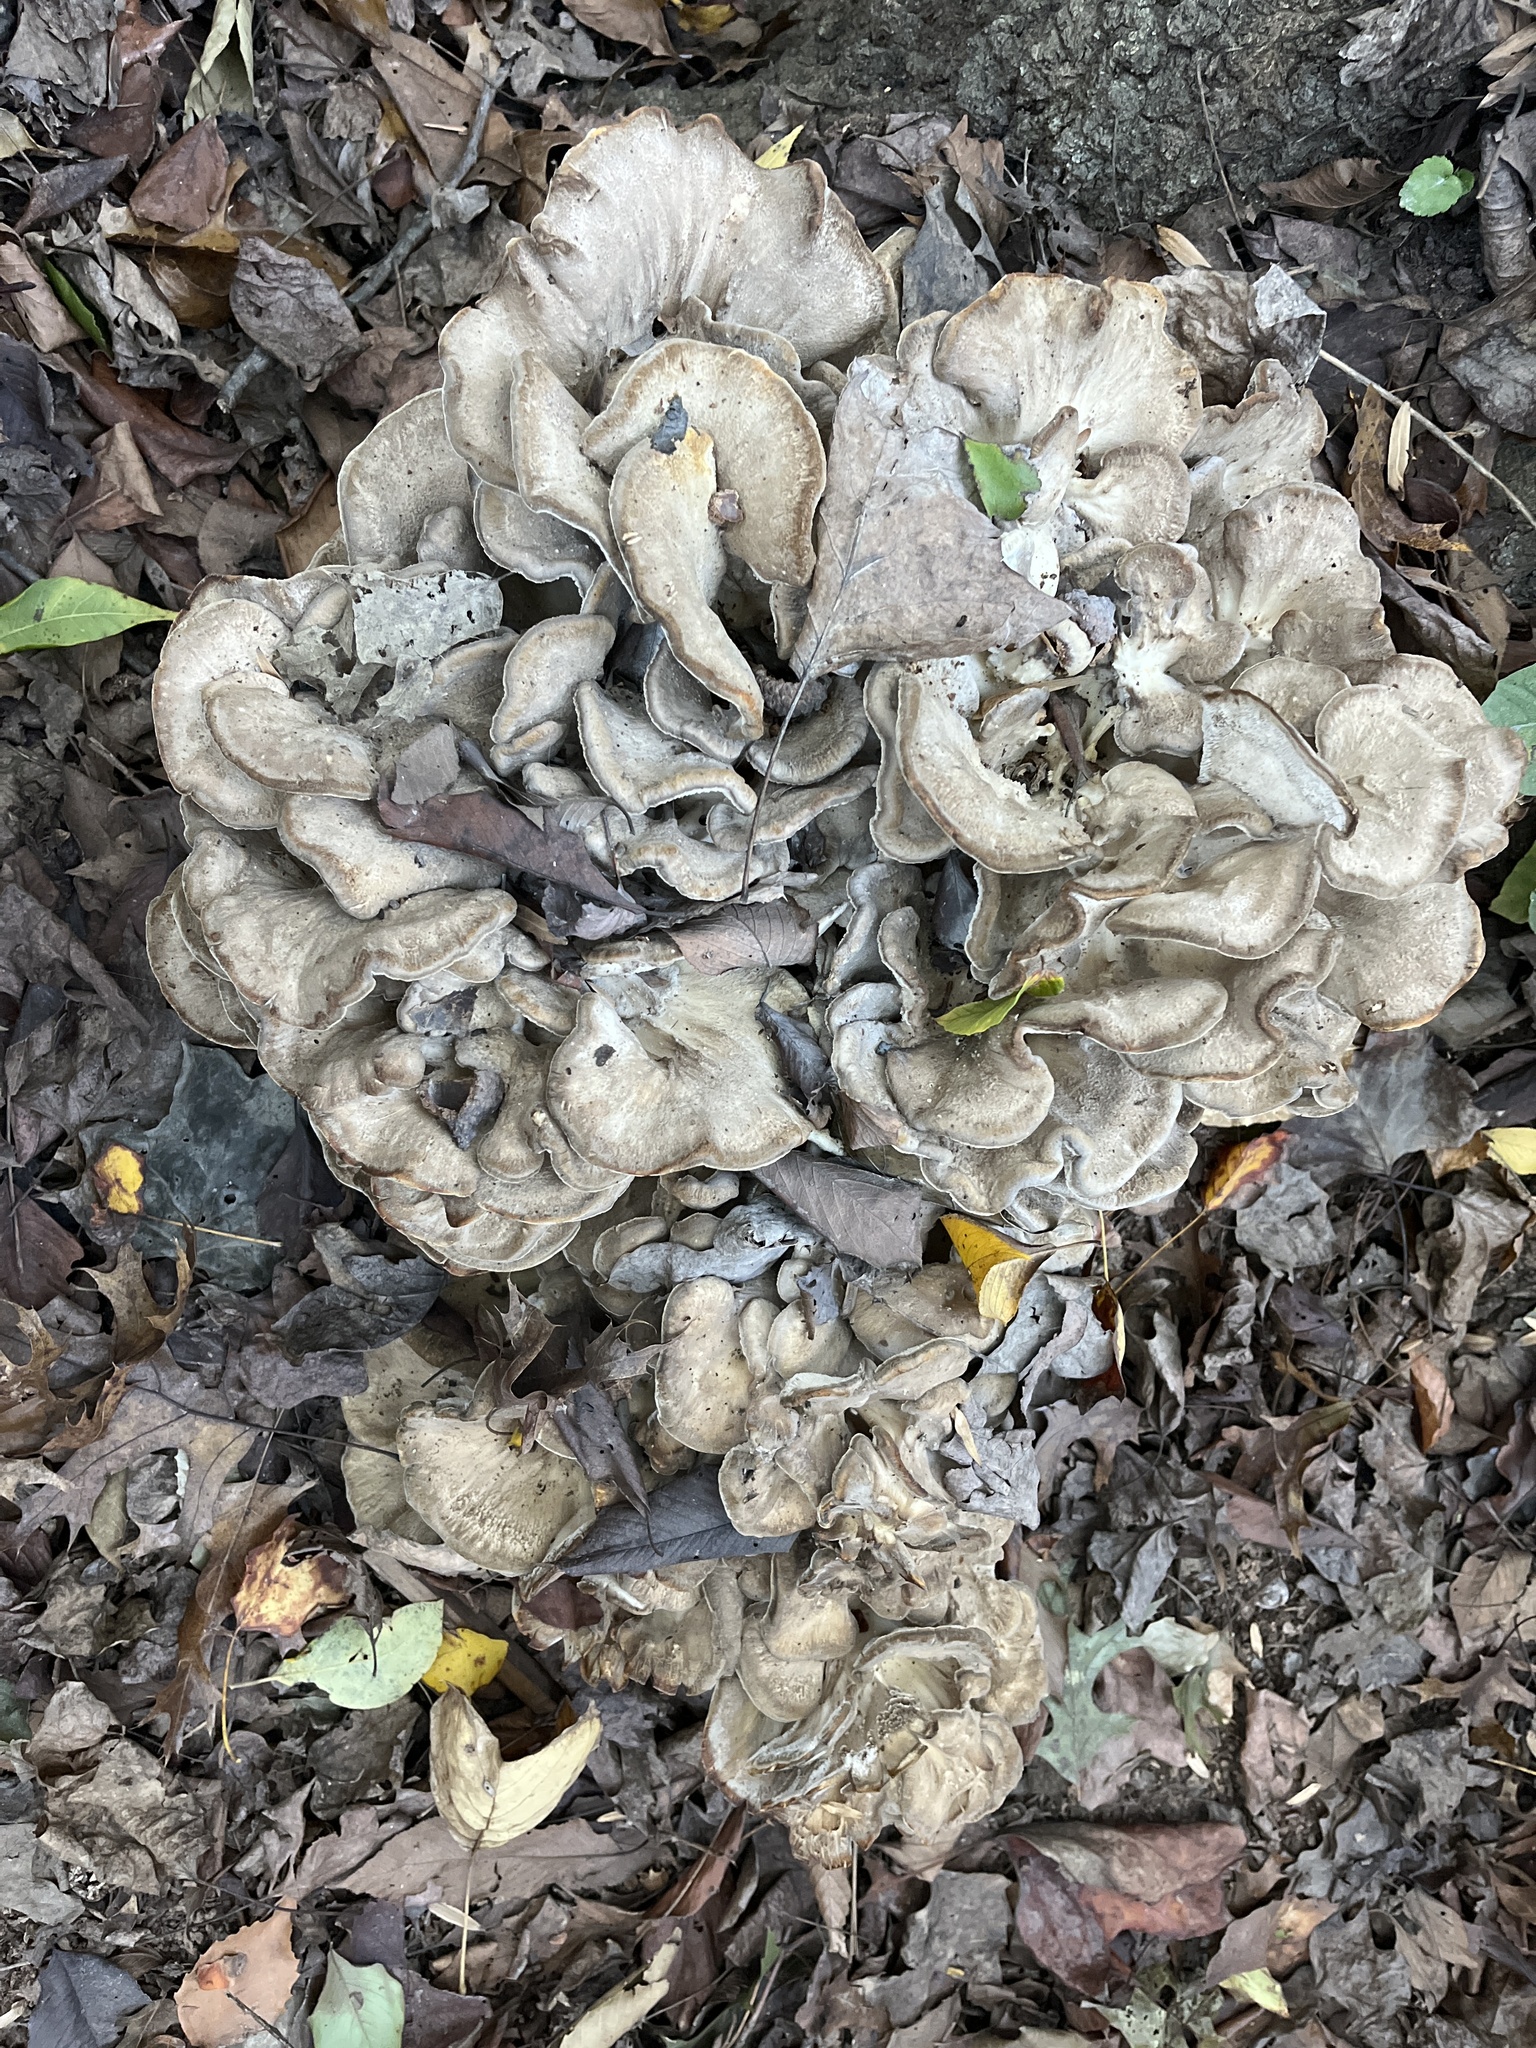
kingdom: Fungi
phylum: Basidiomycota
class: Agaricomycetes
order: Polyporales
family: Grifolaceae
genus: Grifola
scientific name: Grifola frondosa
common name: Hen of the woods
